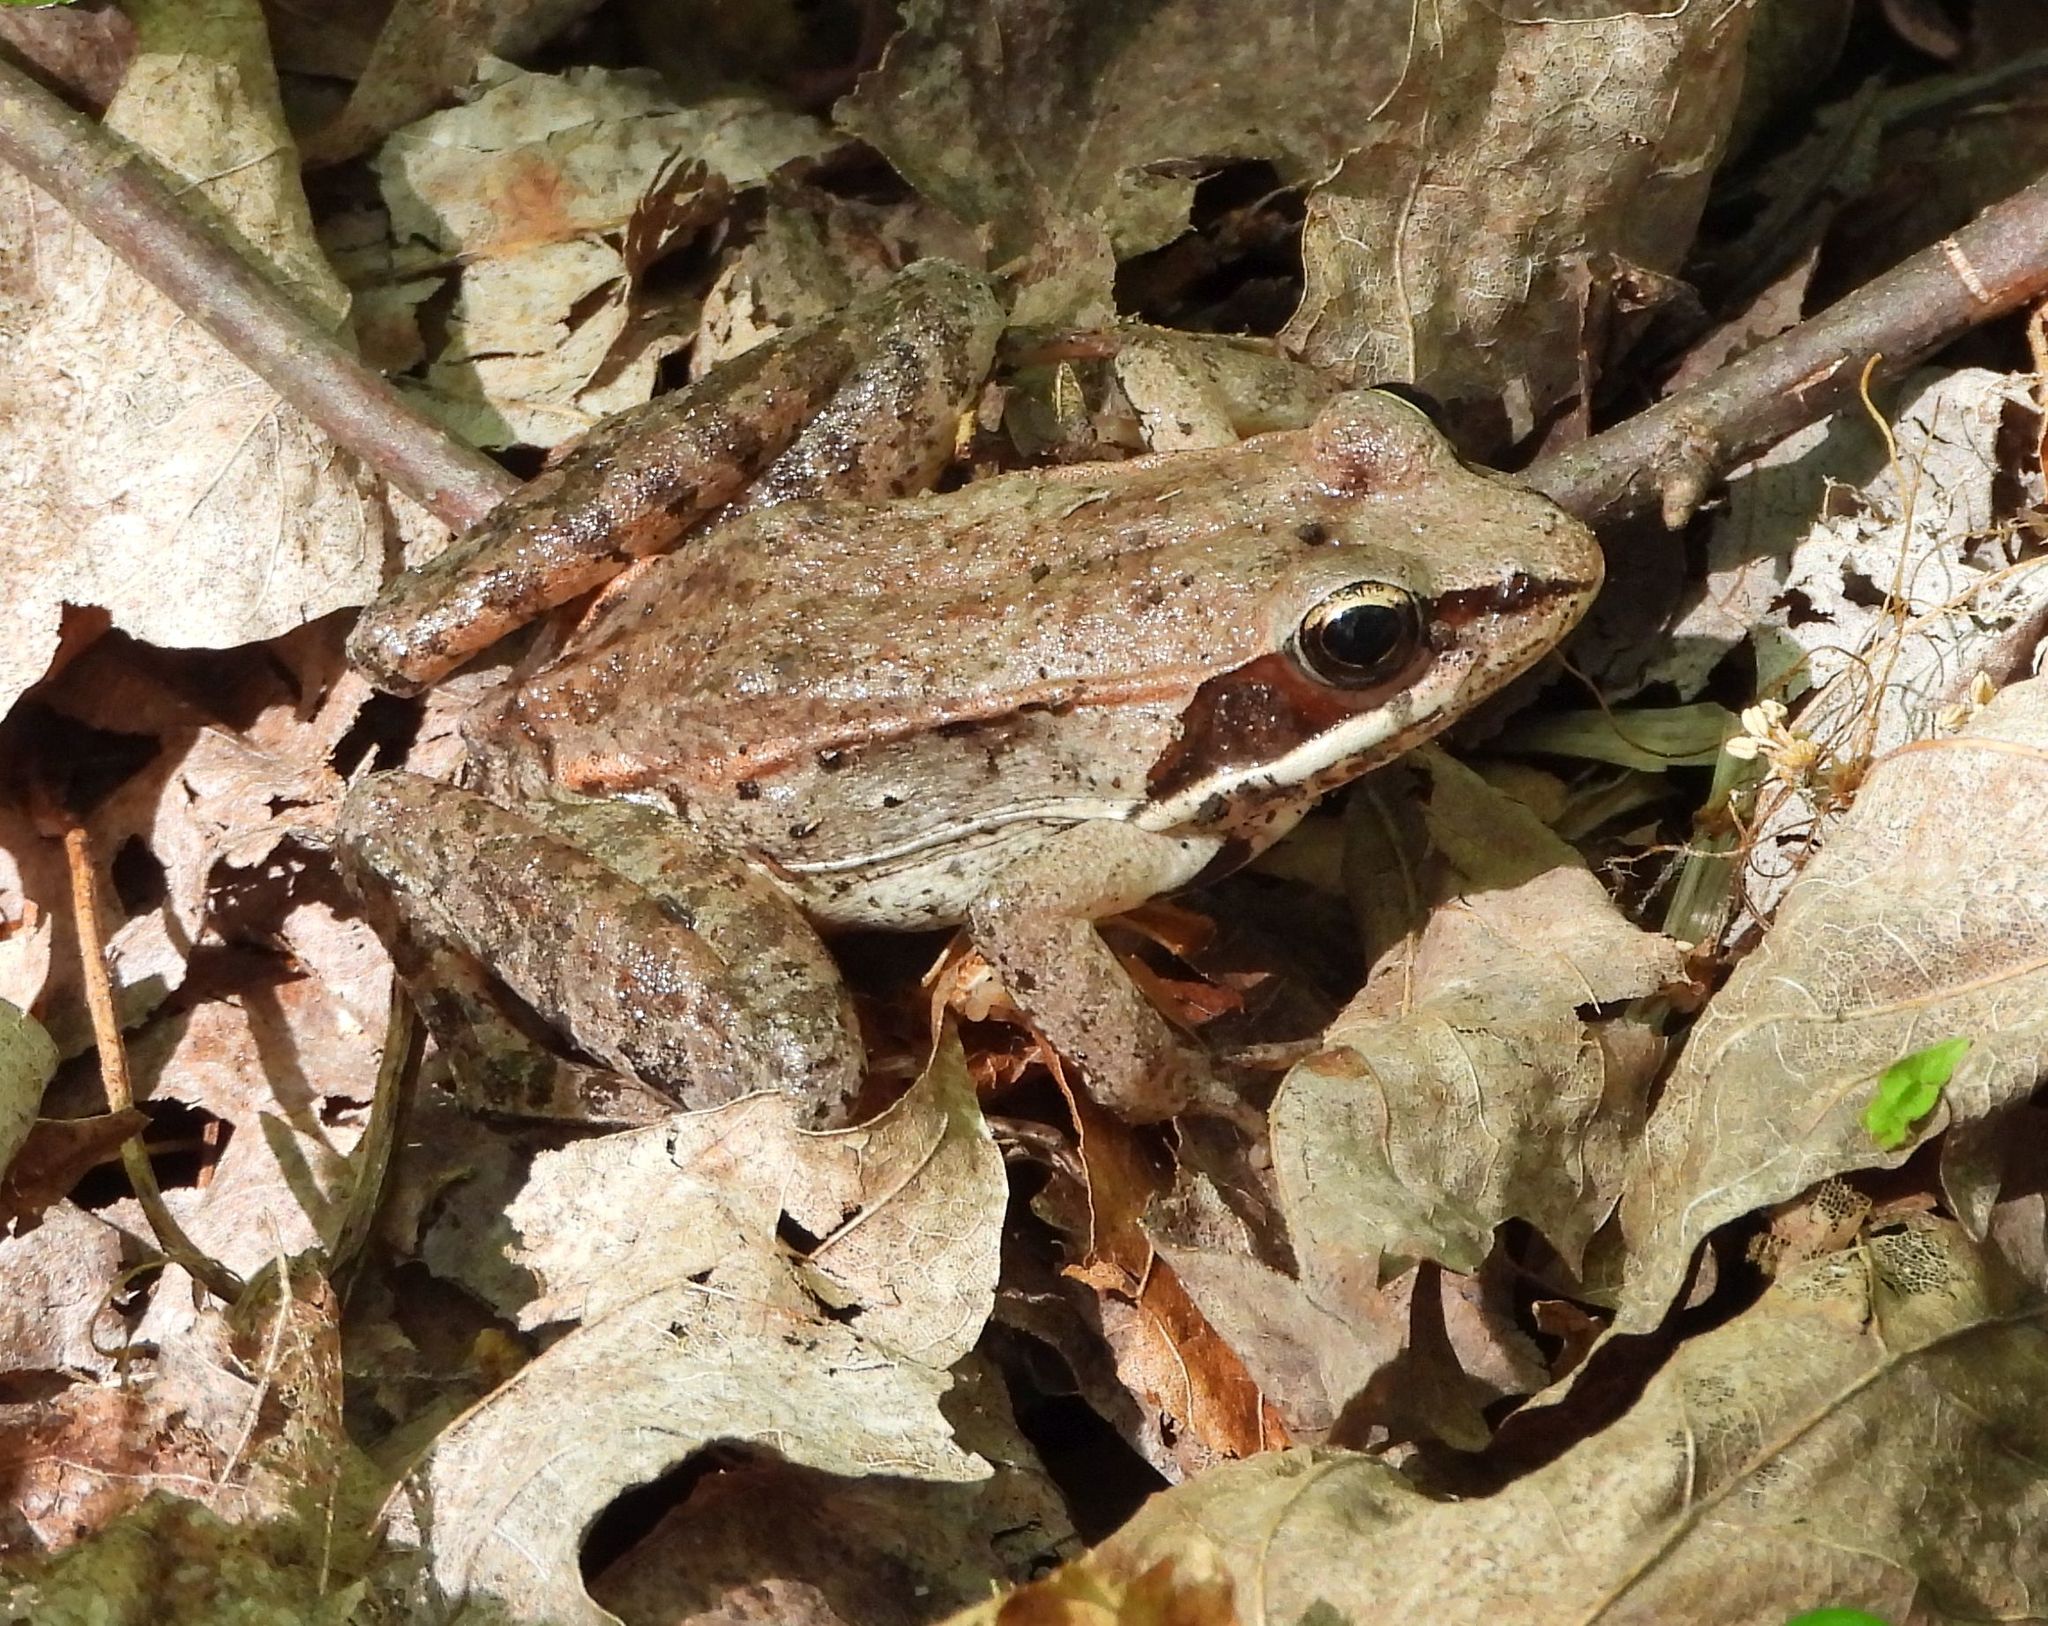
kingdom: Animalia
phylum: Chordata
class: Amphibia
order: Anura
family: Ranidae
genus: Lithobates
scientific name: Lithobates sylvaticus
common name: Wood frog
